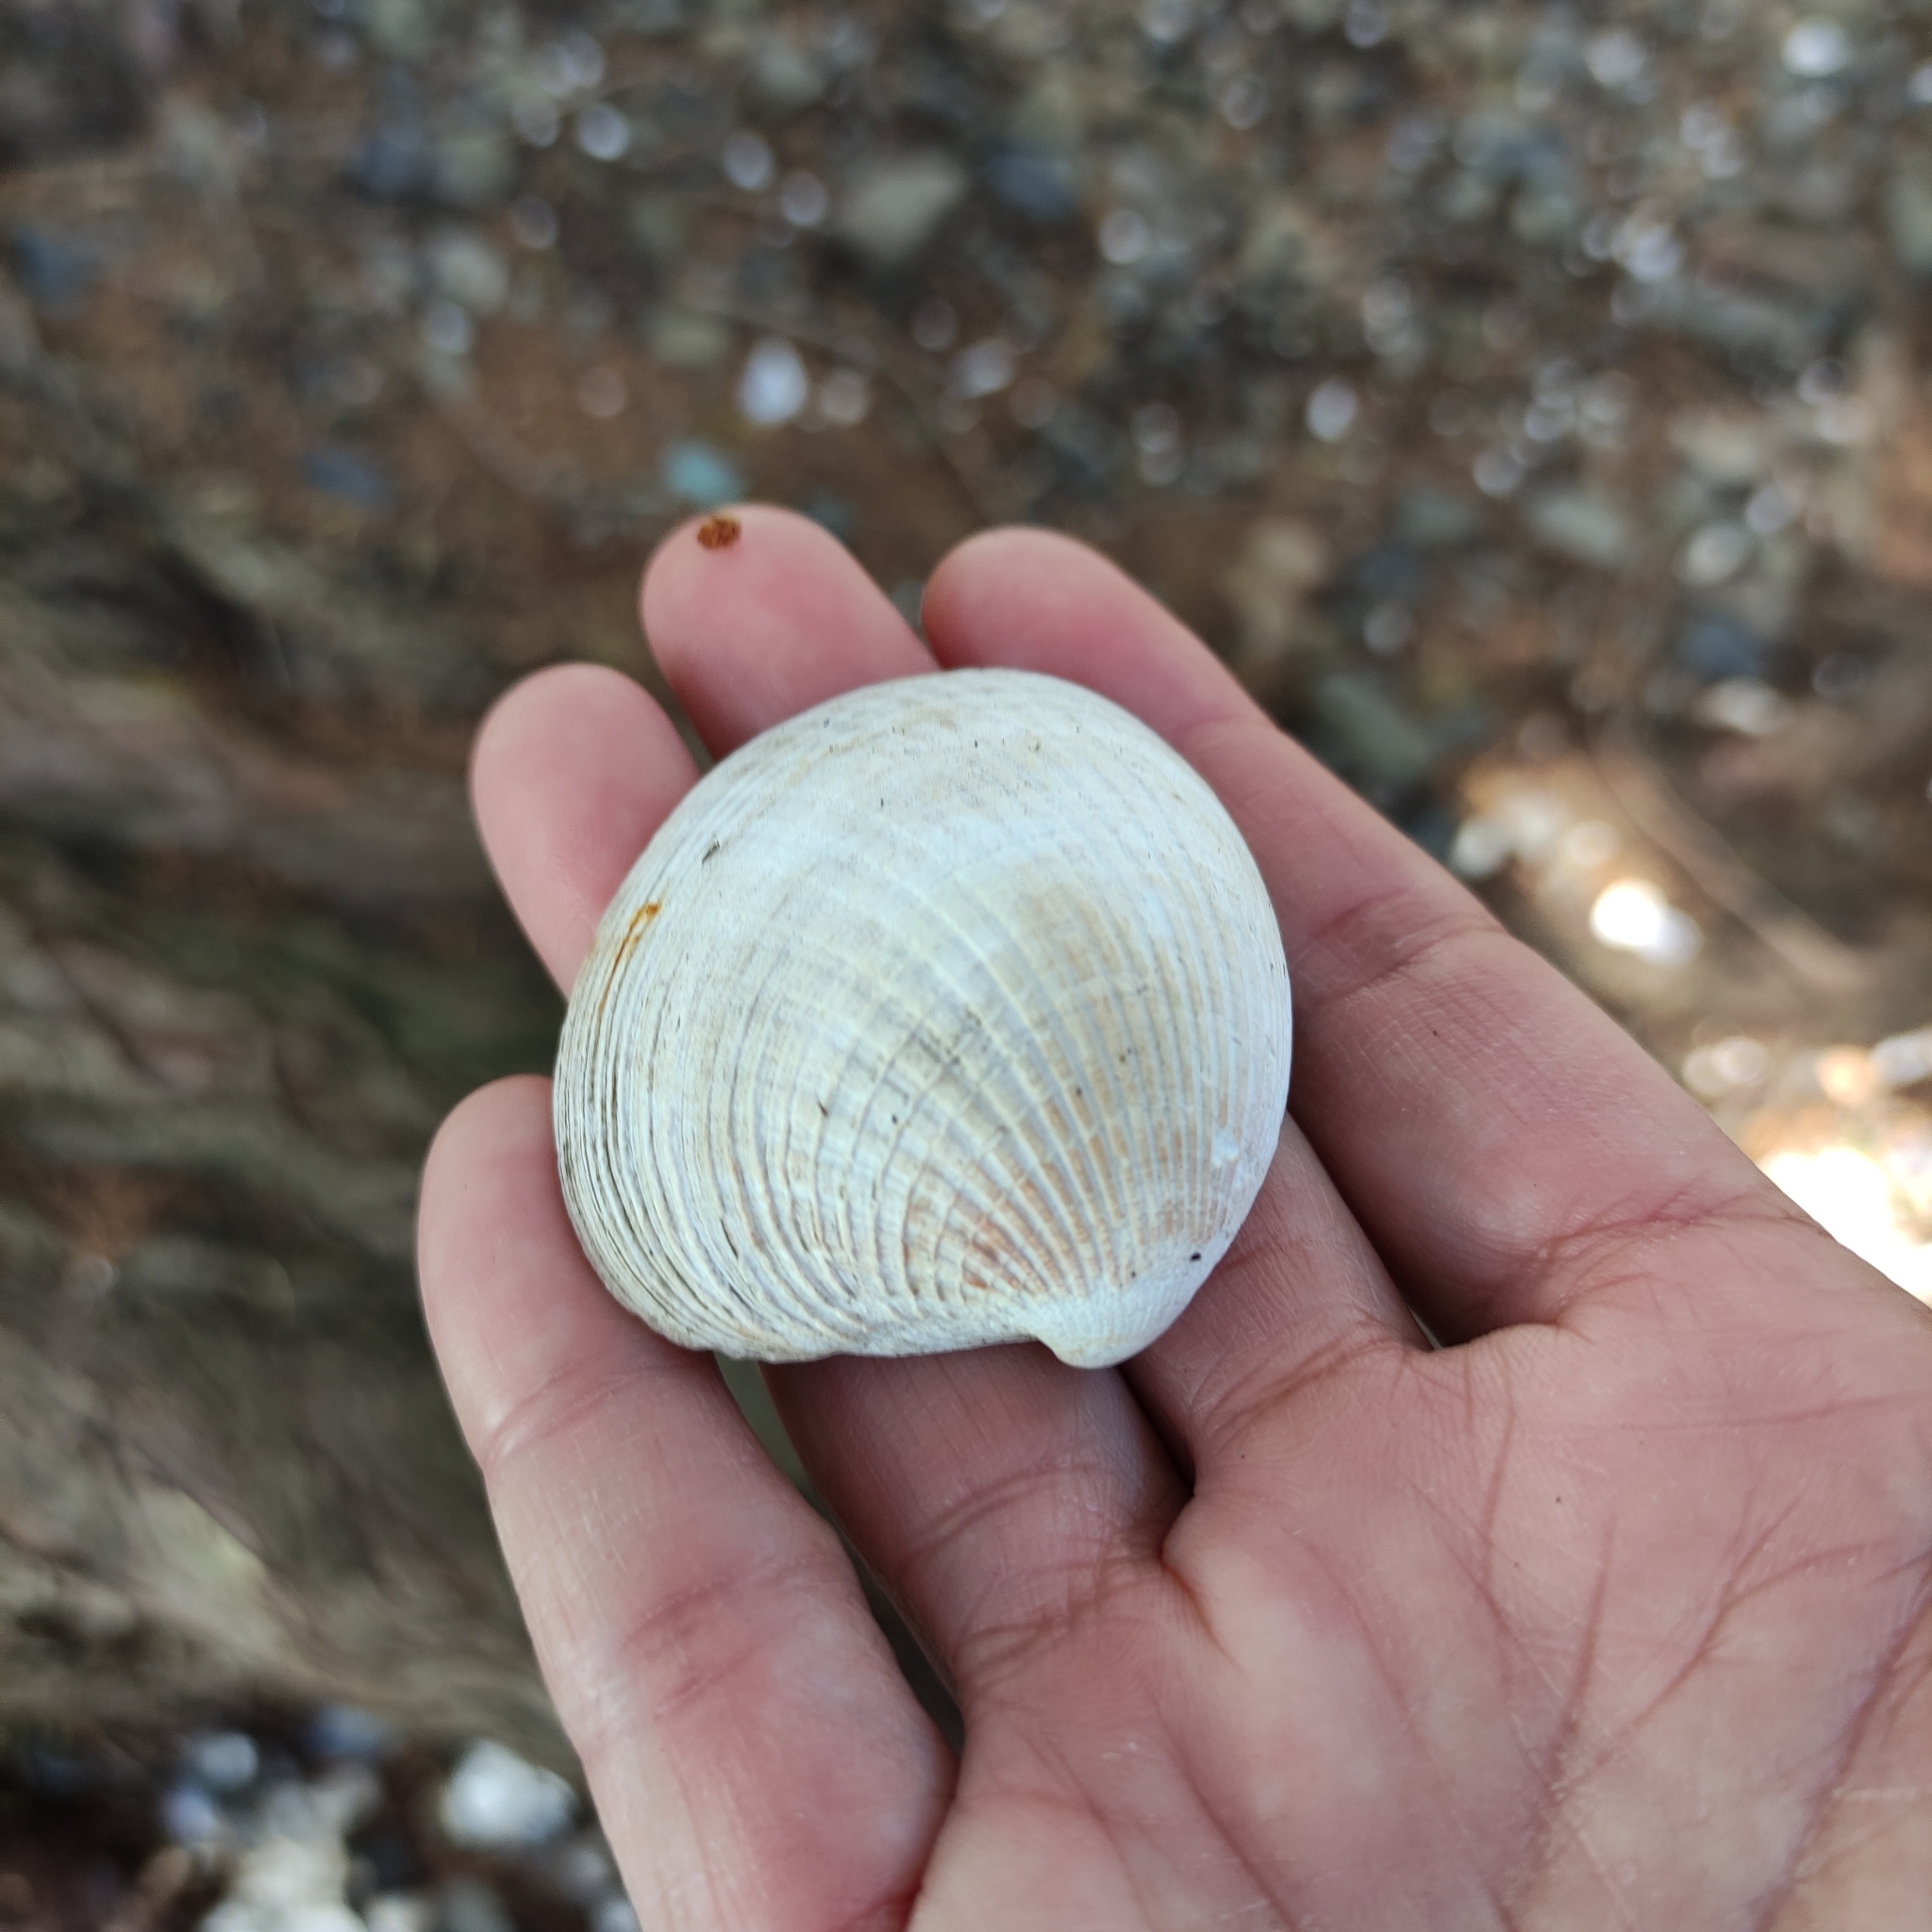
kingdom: Animalia
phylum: Mollusca
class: Bivalvia
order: Venerida
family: Veneridae
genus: Austrovenus
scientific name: Austrovenus stutchburyi
